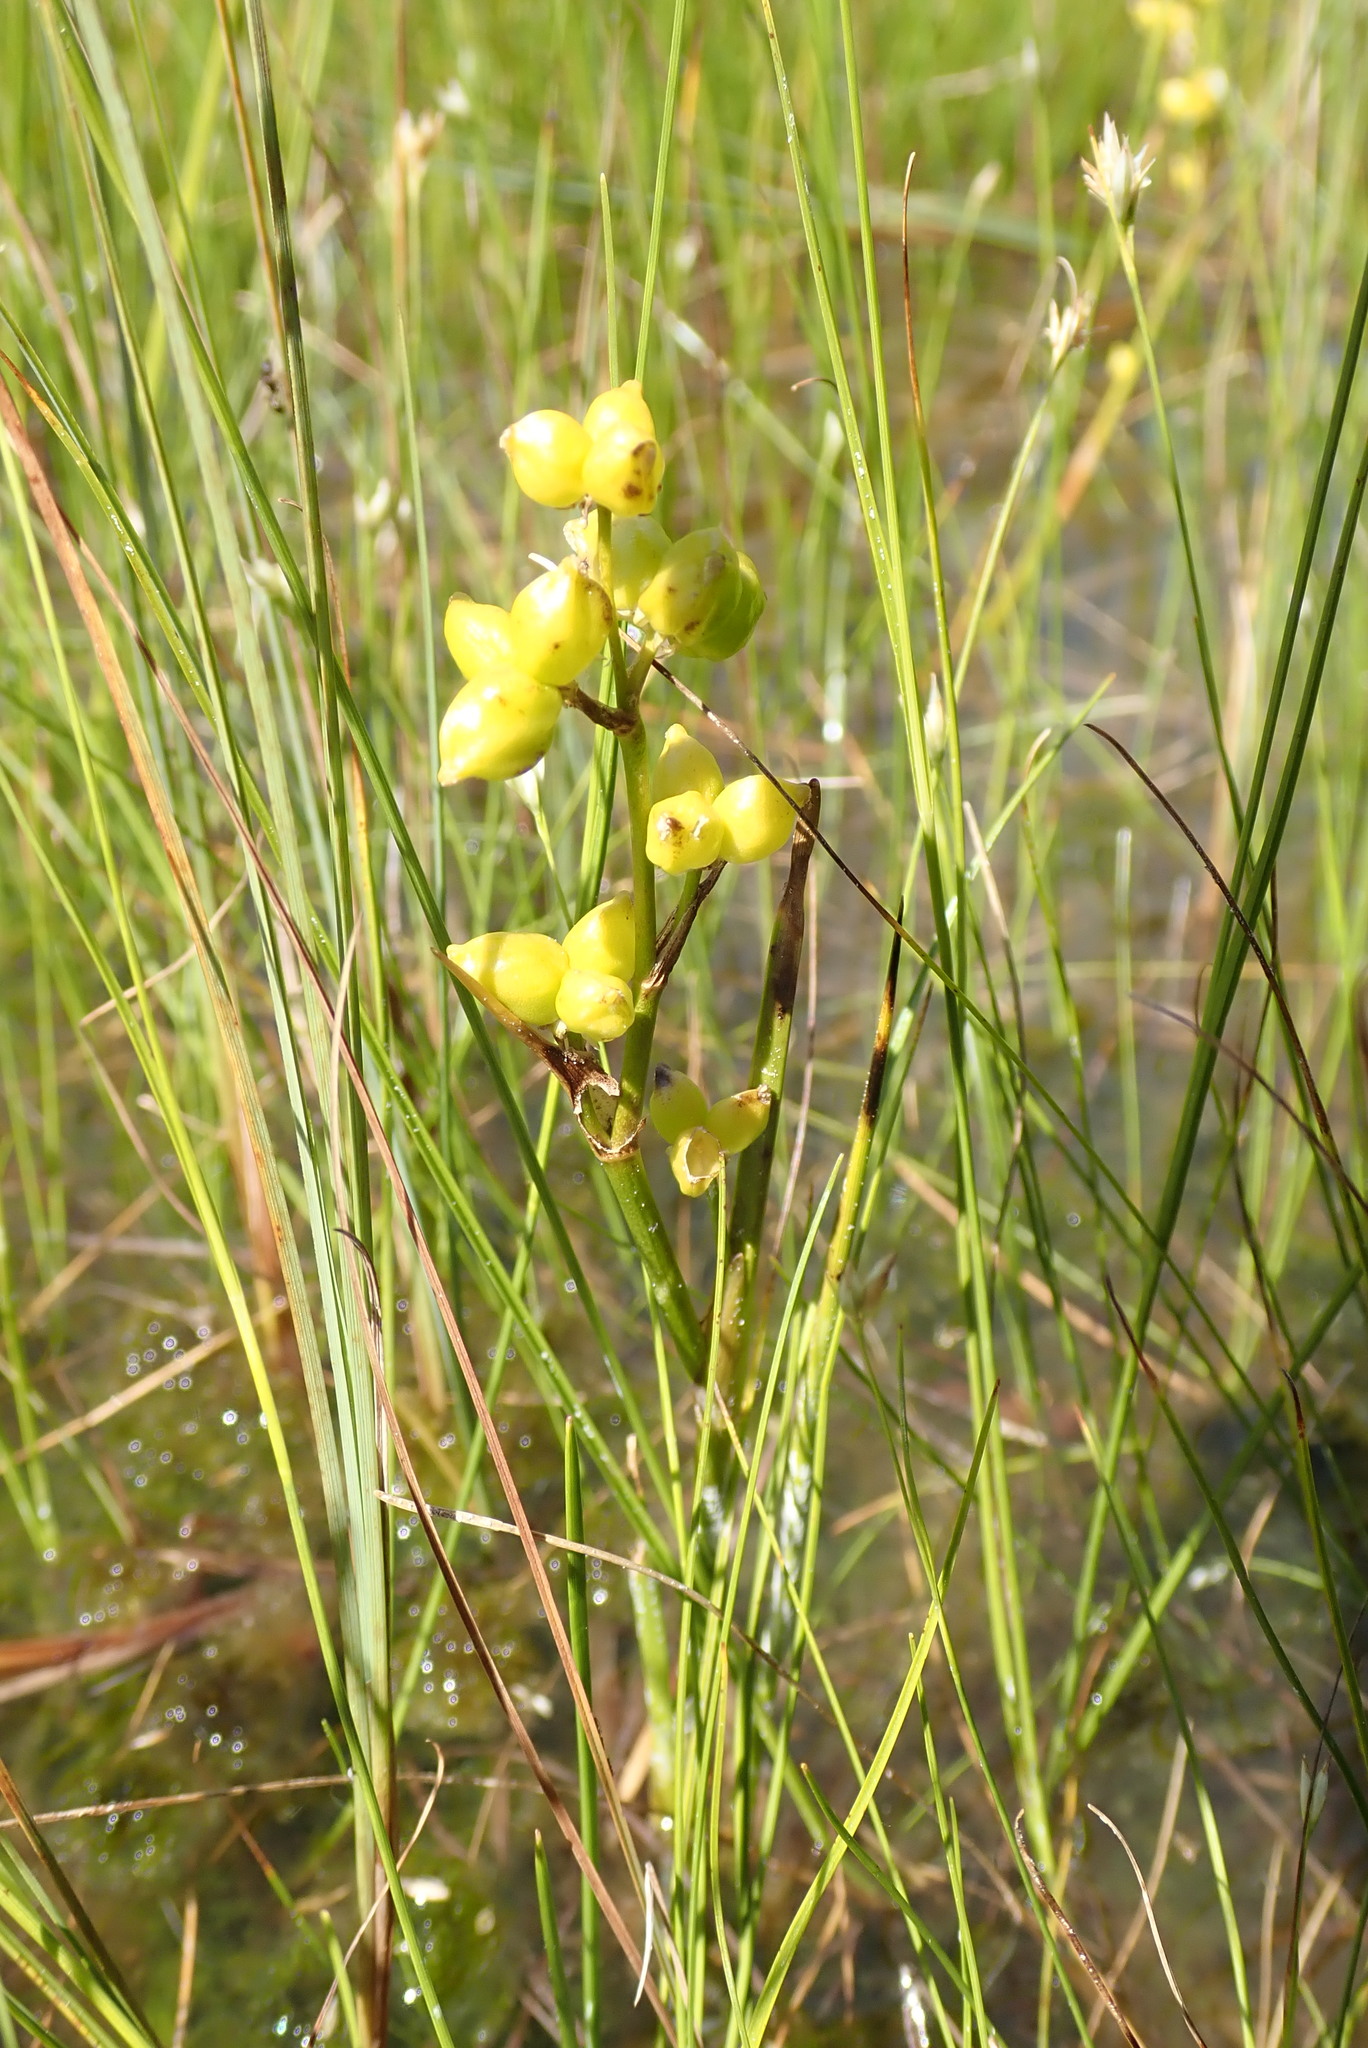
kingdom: Plantae
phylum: Tracheophyta
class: Liliopsida
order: Alismatales
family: Scheuchzeriaceae
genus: Scheuchzeria
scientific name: Scheuchzeria palustris
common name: Rannoch-rush
